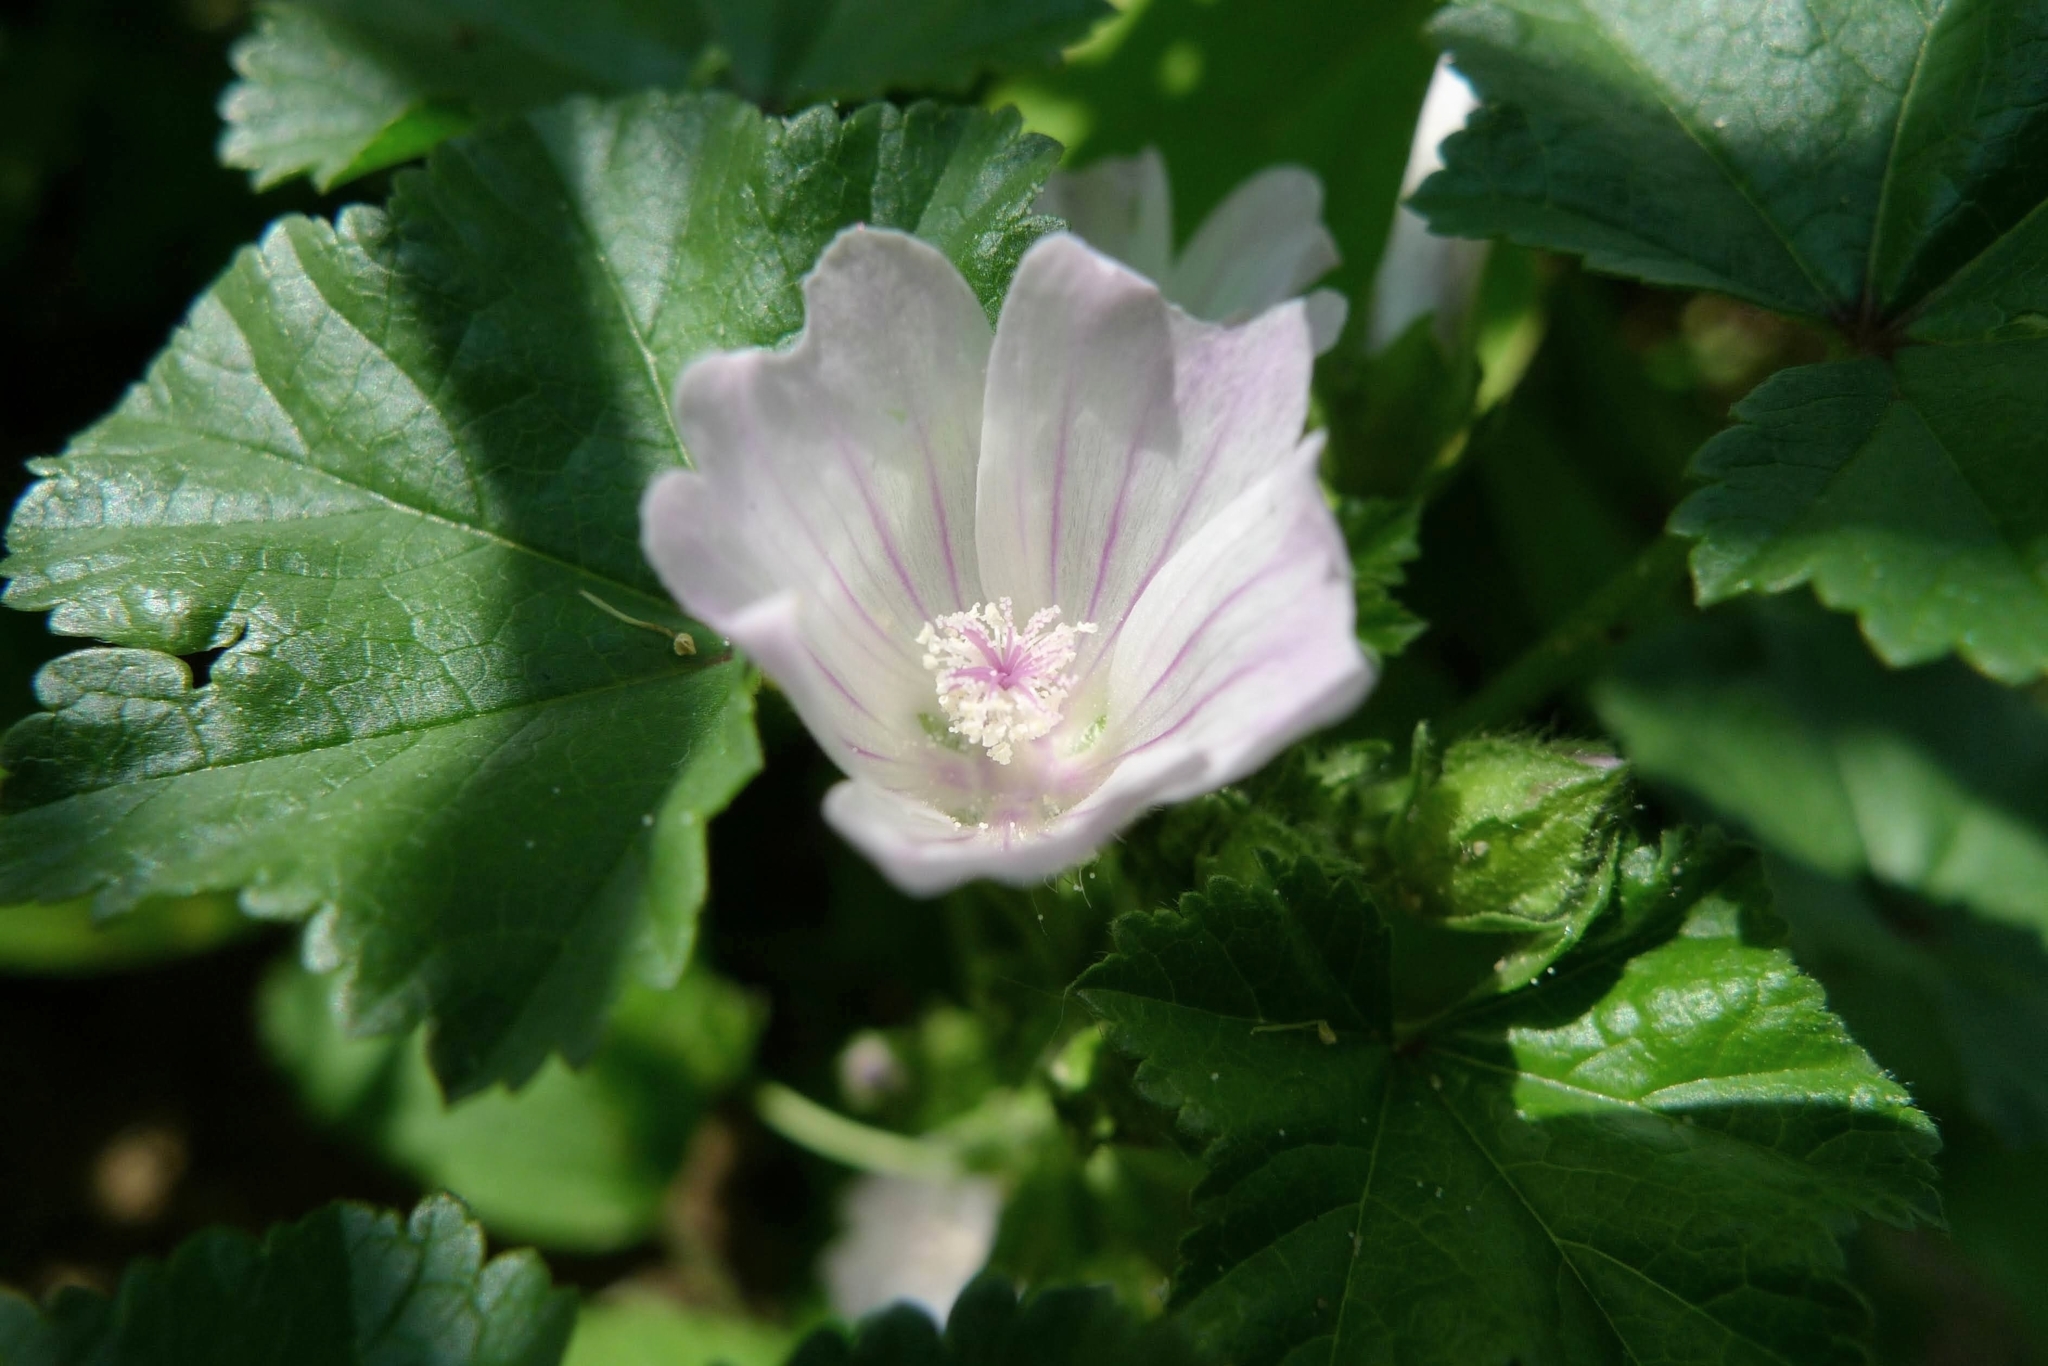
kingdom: Plantae
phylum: Tracheophyta
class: Magnoliopsida
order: Malvales
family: Malvaceae
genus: Malva
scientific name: Malva neglecta
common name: Common mallow
